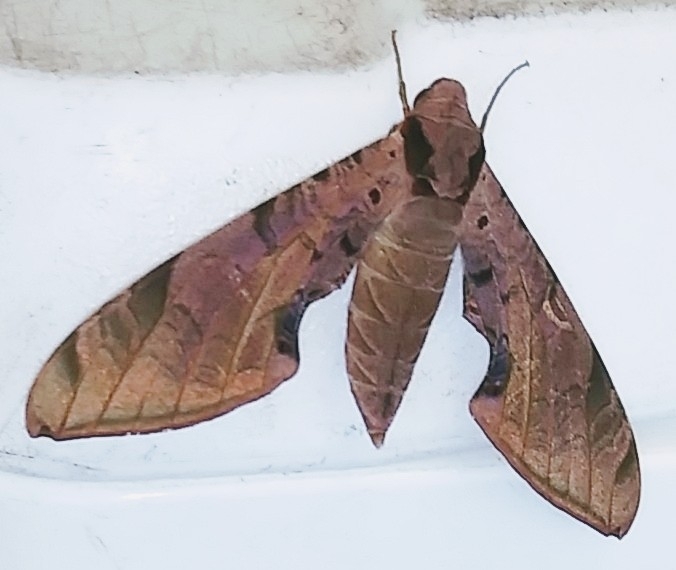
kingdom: Animalia
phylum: Arthropoda
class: Insecta
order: Lepidoptera
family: Sphingidae
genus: Protambulyx
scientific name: Protambulyx strigilis
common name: Streaked sphinx
